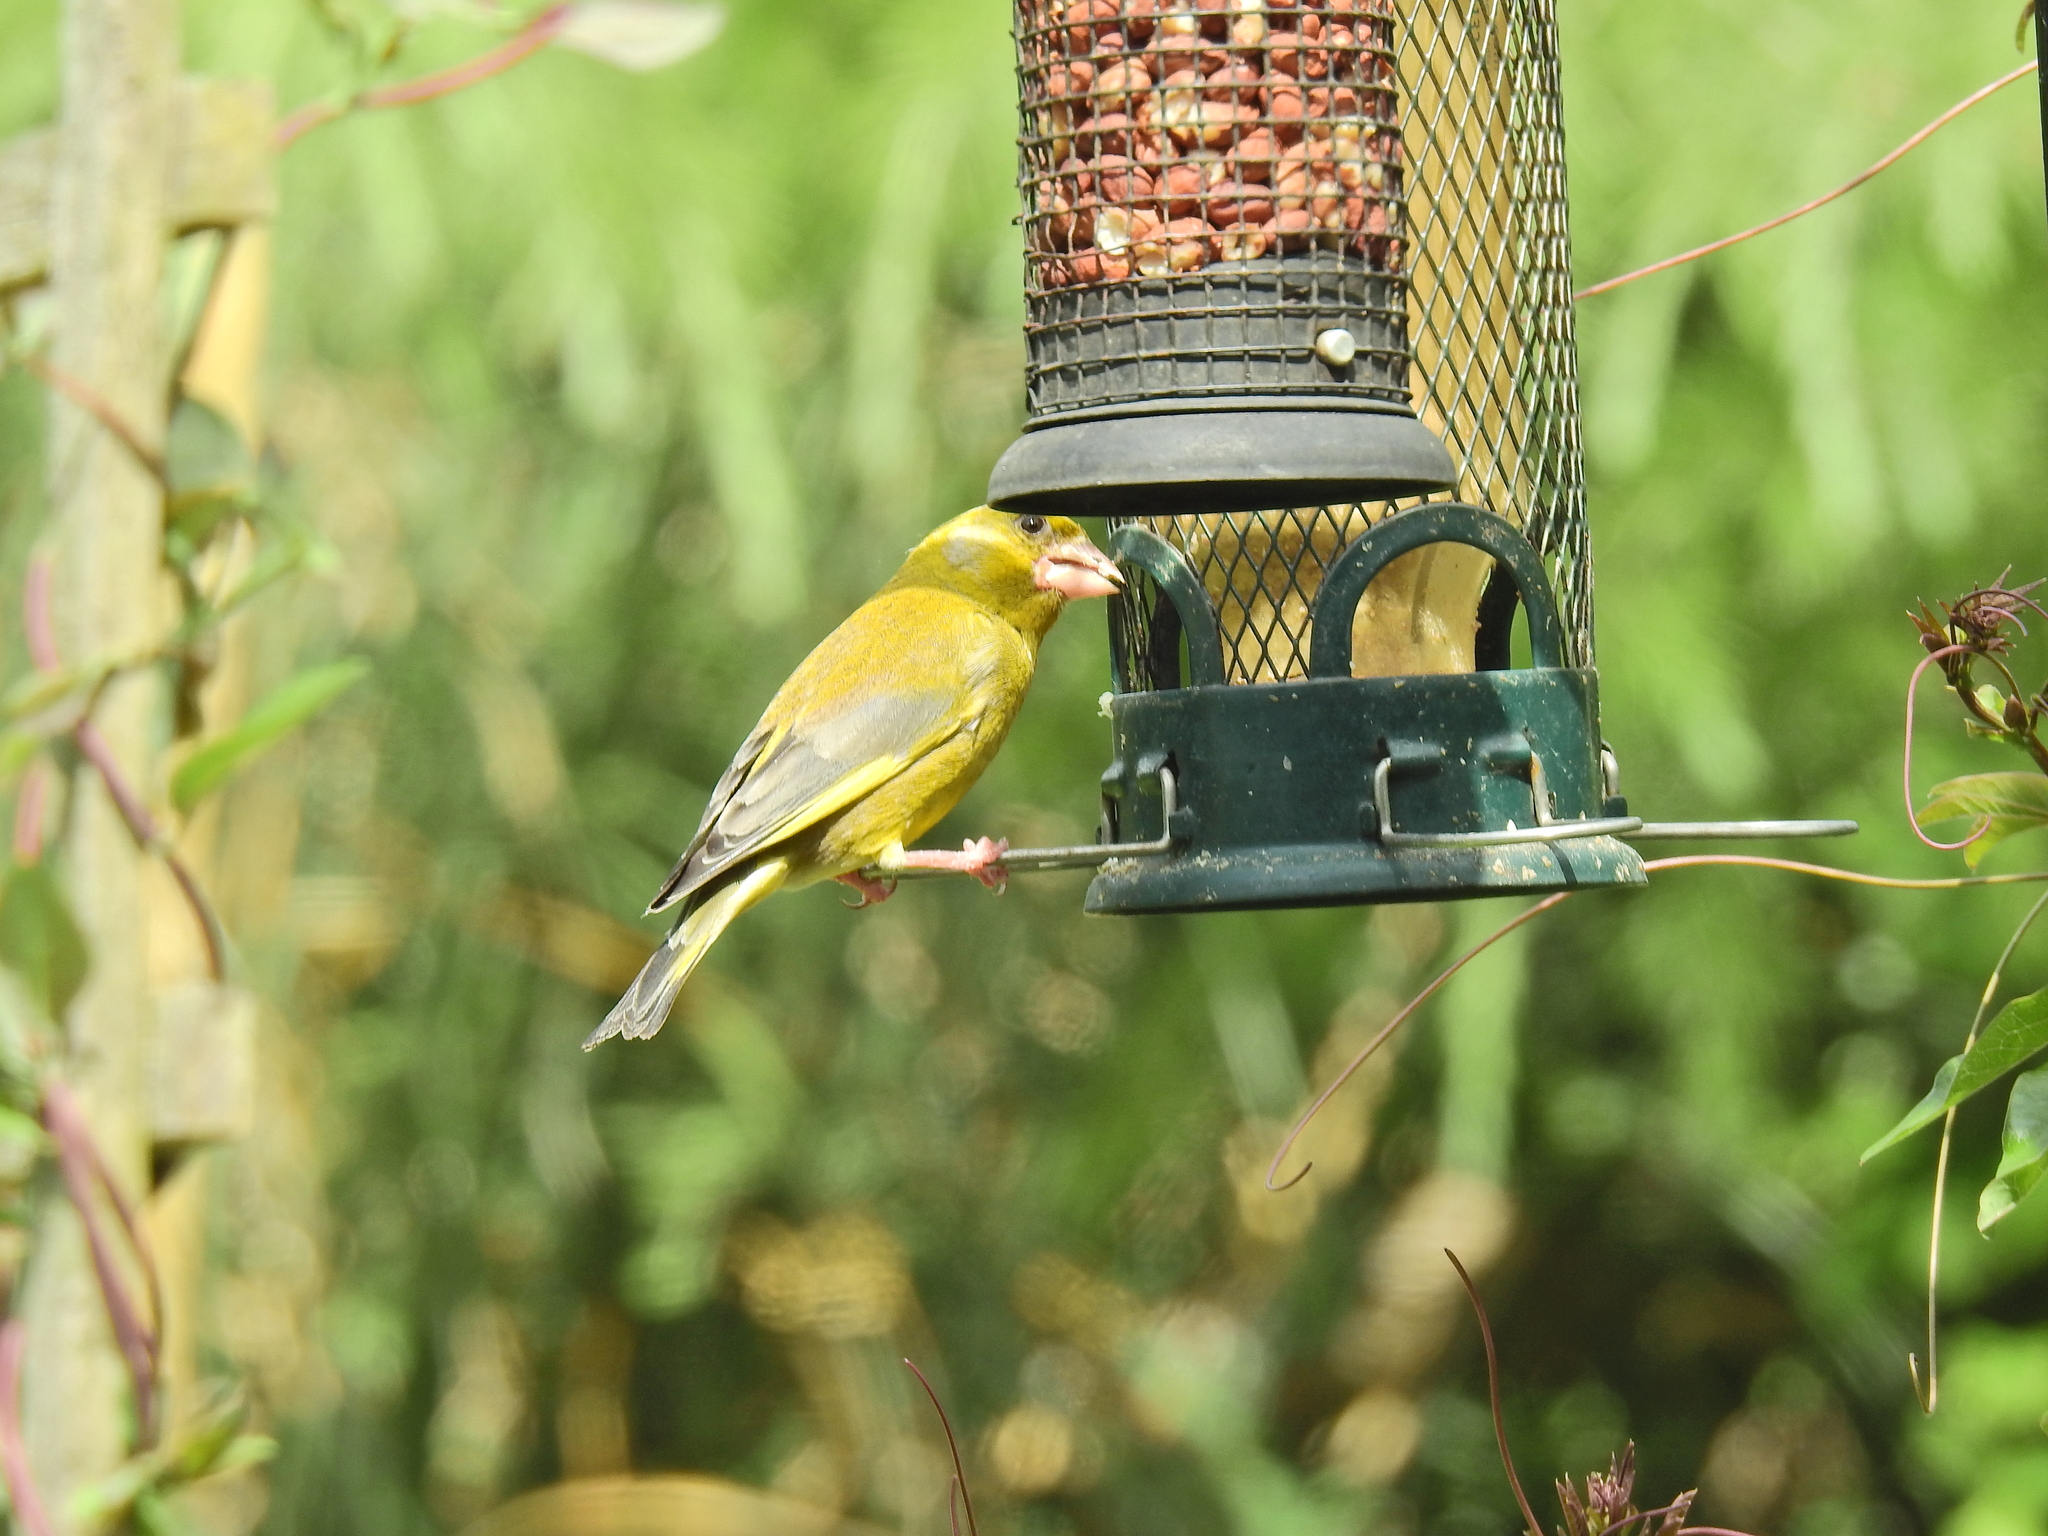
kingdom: Plantae
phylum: Tracheophyta
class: Liliopsida
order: Poales
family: Poaceae
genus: Chloris
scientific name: Chloris chloris
